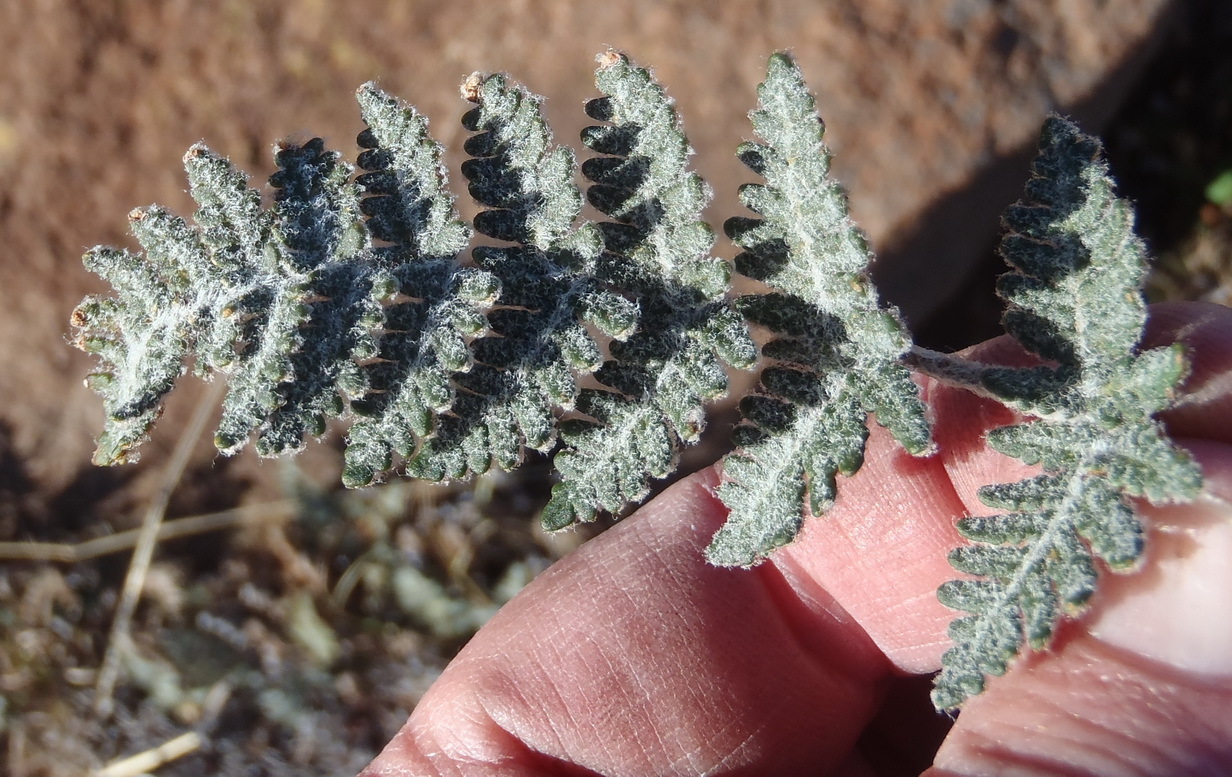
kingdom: Plantae
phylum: Tracheophyta
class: Polypodiopsida
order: Polypodiales
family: Pteridaceae
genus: Cheilanthes
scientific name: Cheilanthes eckloniana
